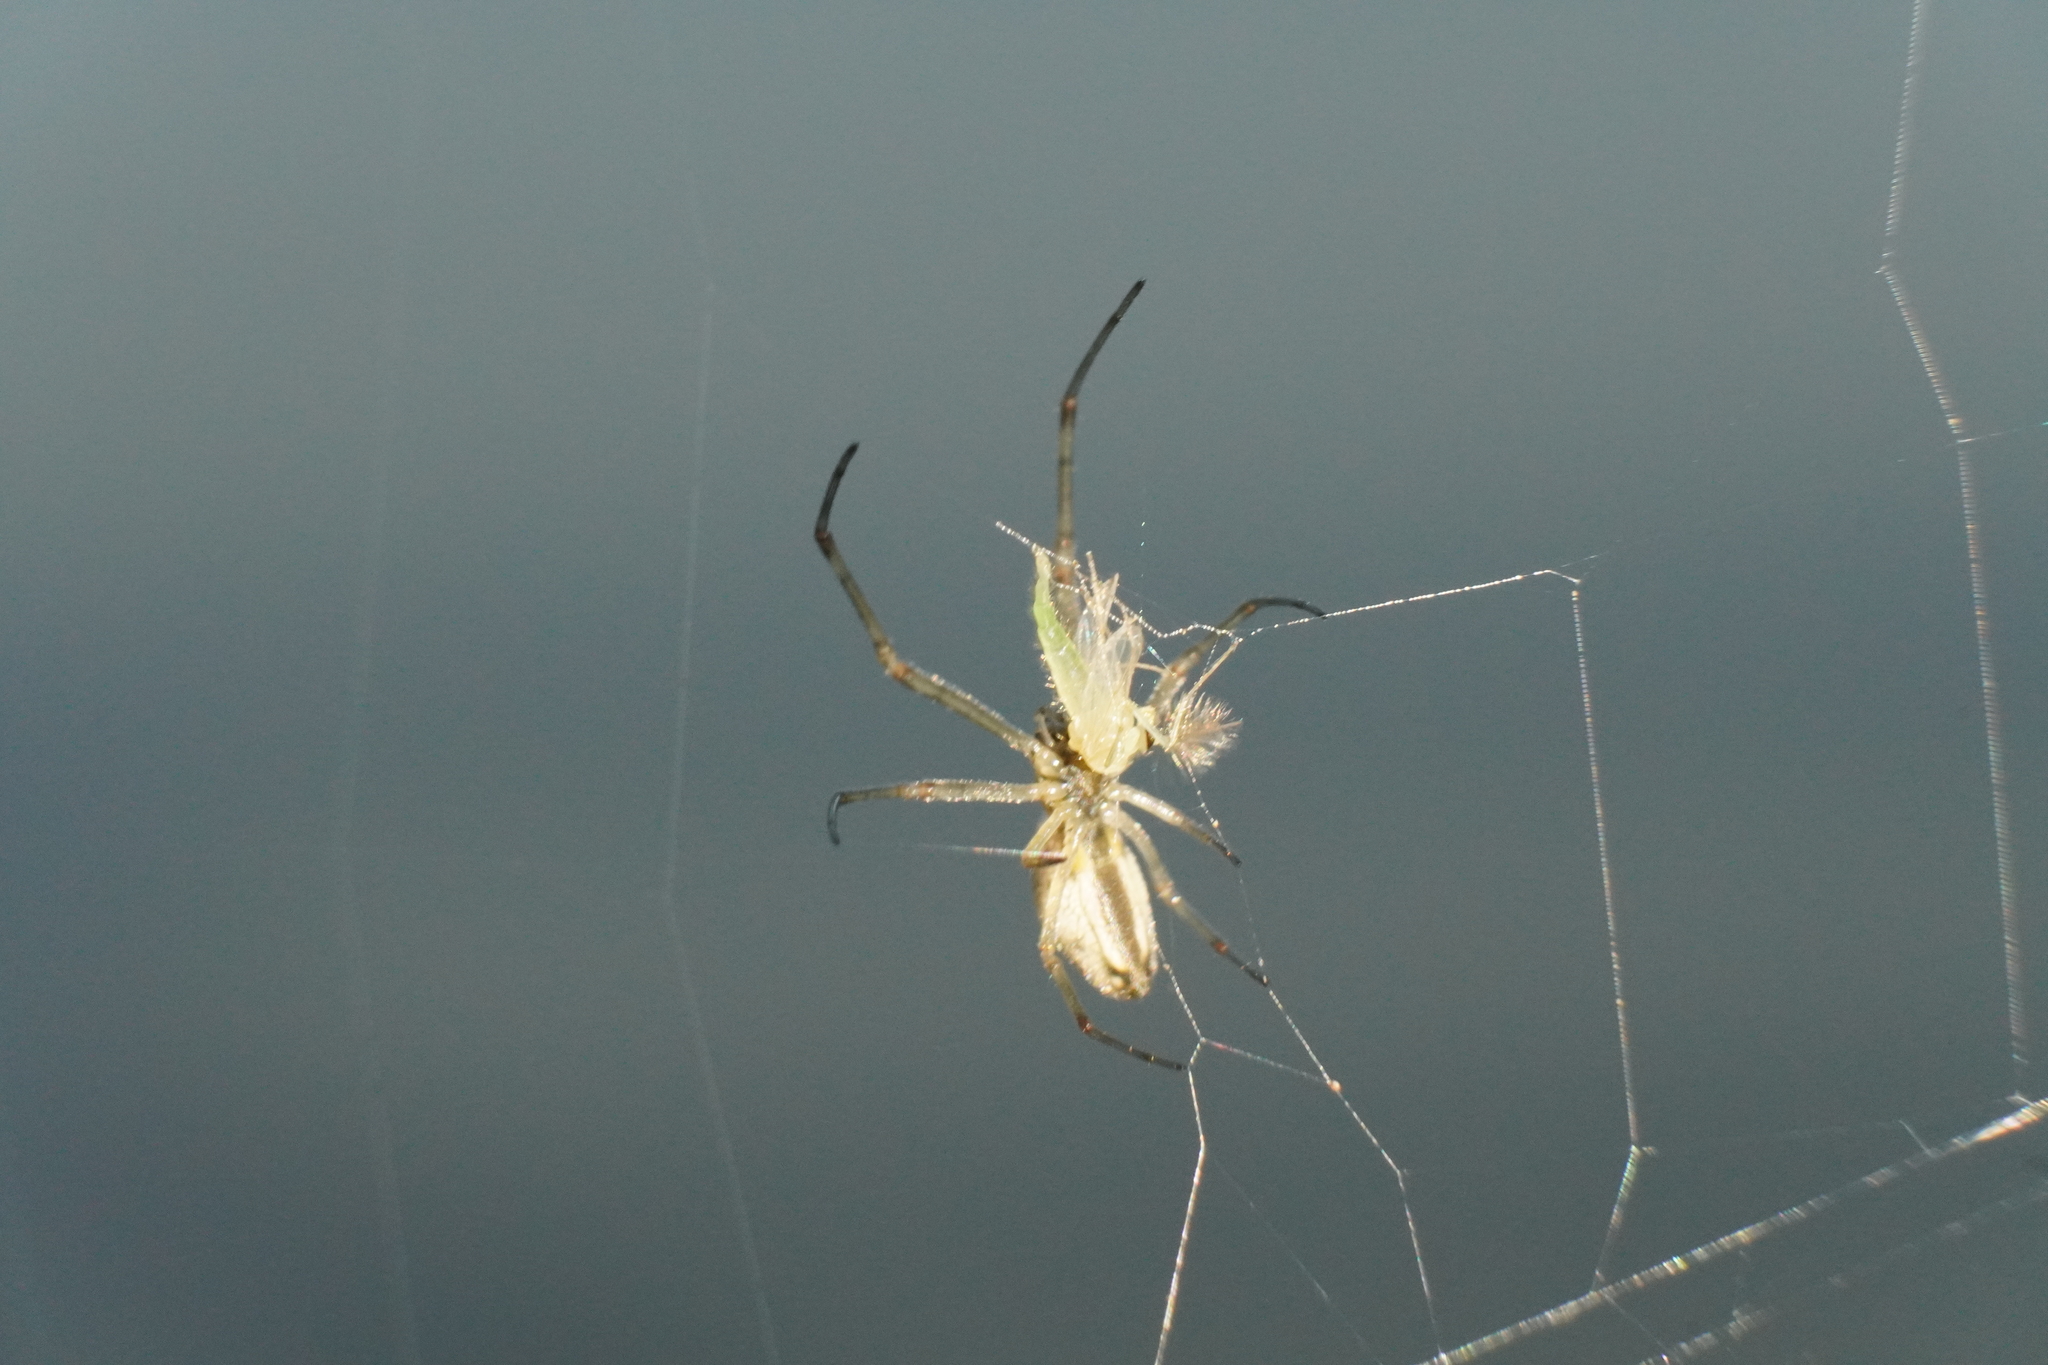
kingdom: Animalia
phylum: Arthropoda
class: Arachnida
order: Araneae
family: Tetragnathidae
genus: Tetragnatha
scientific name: Tetragnatha elongata
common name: Longjawed orb weavers
